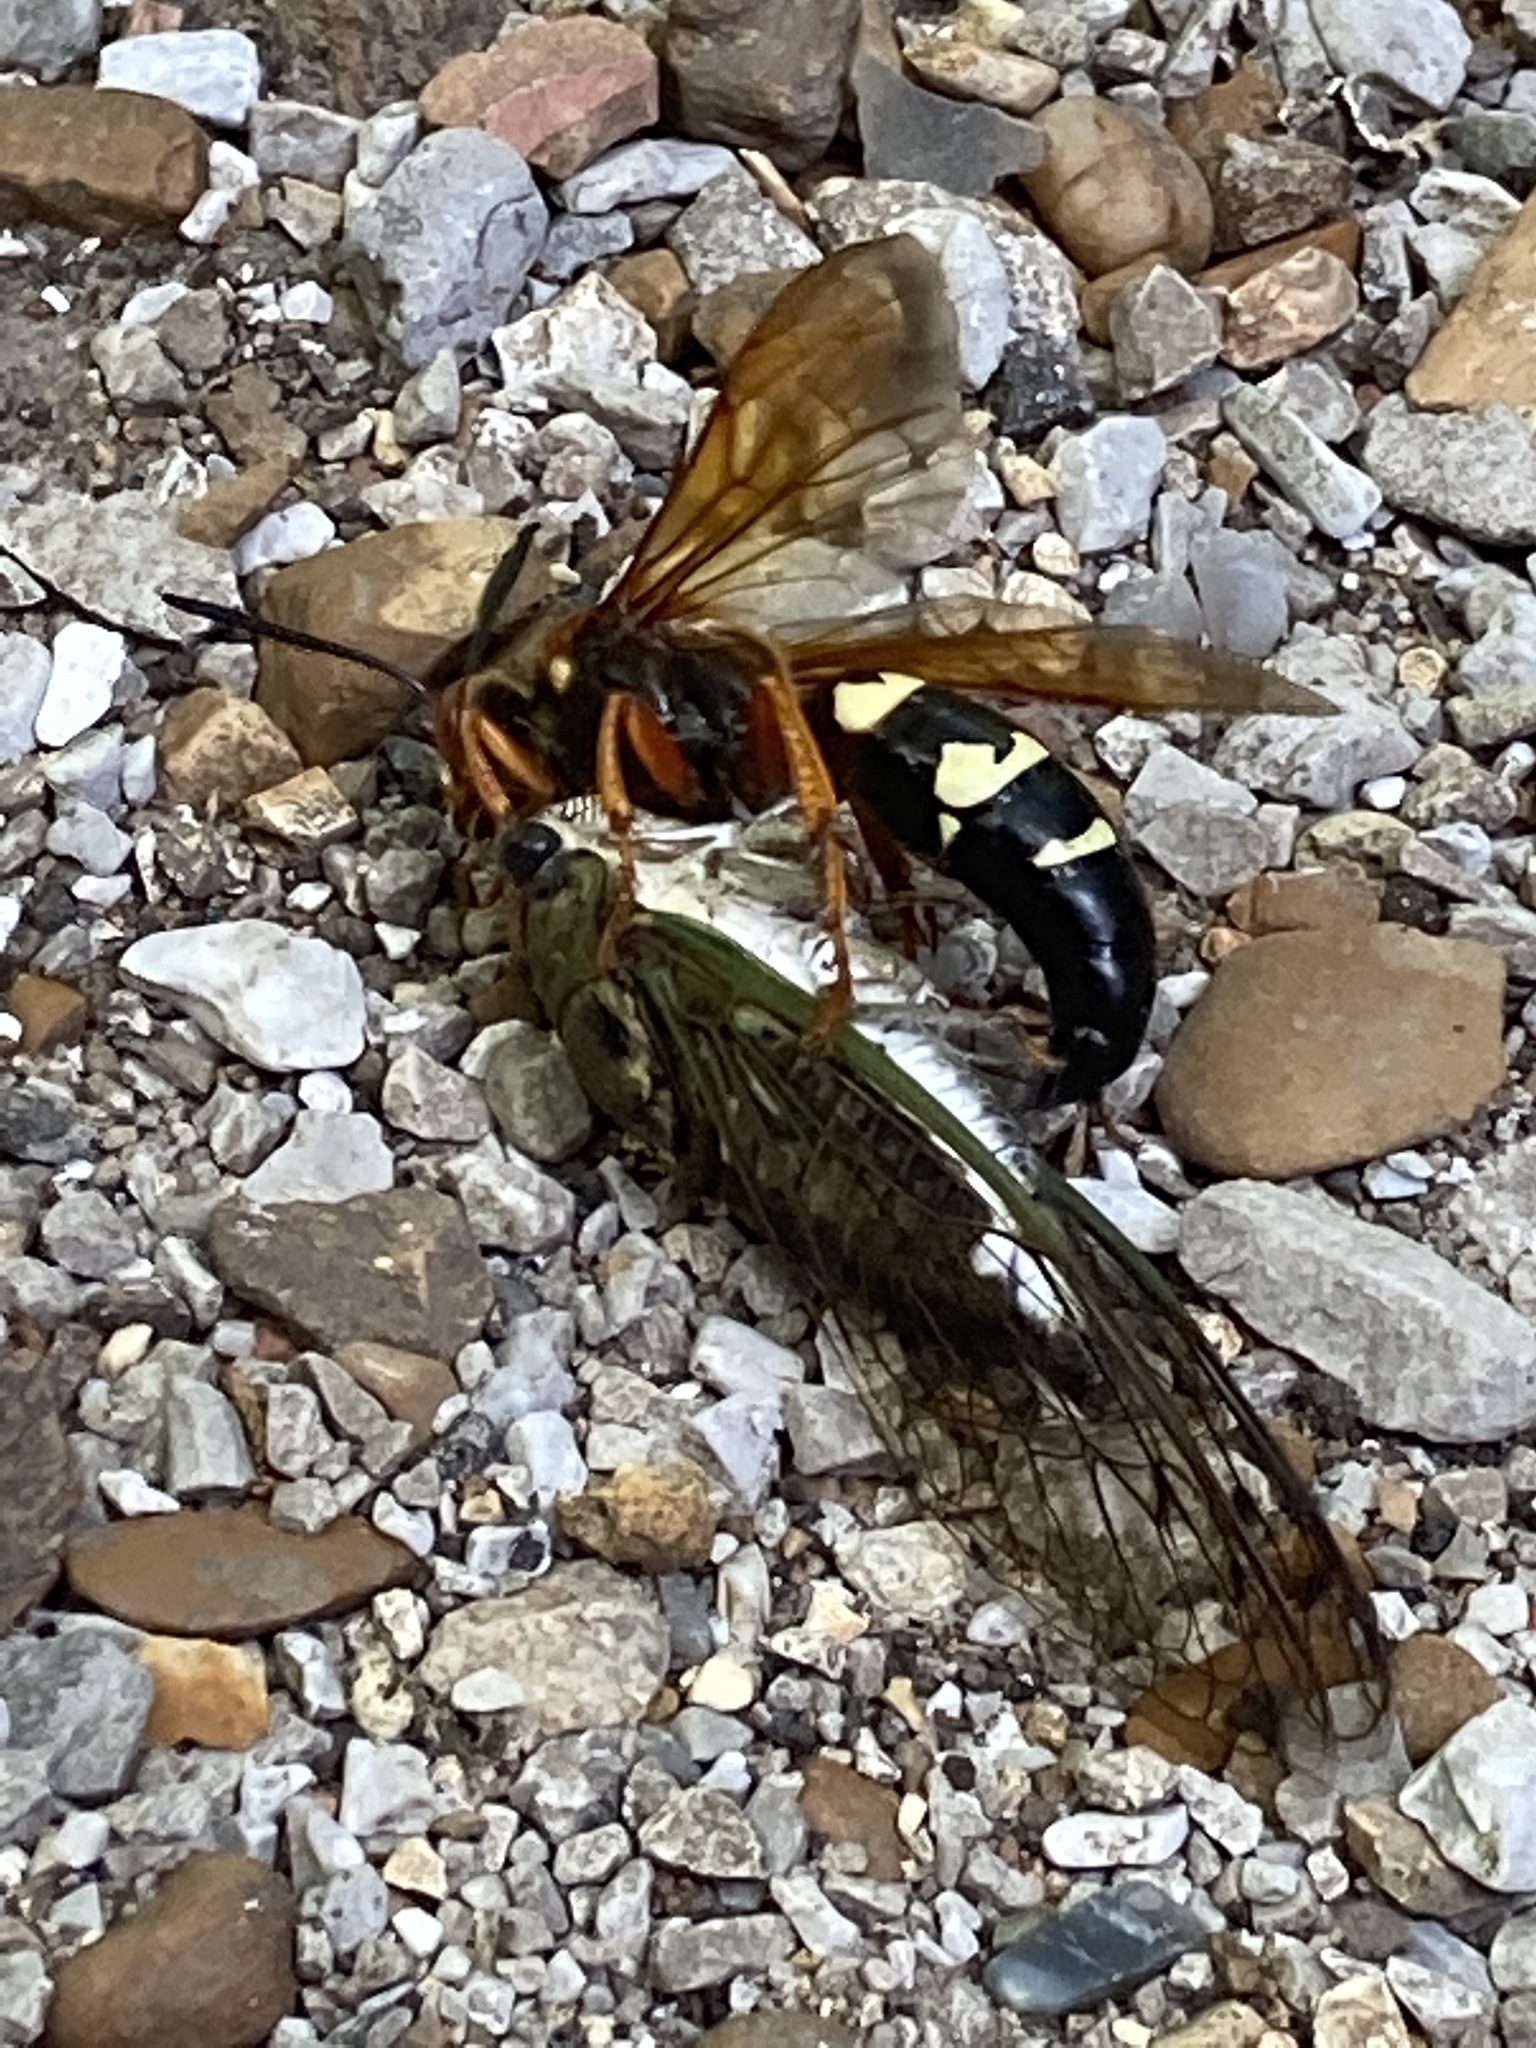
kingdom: Animalia
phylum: Arthropoda
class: Insecta
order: Hymenoptera
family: Crabronidae
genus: Sphecius
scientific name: Sphecius speciosus
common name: Cicada killer
